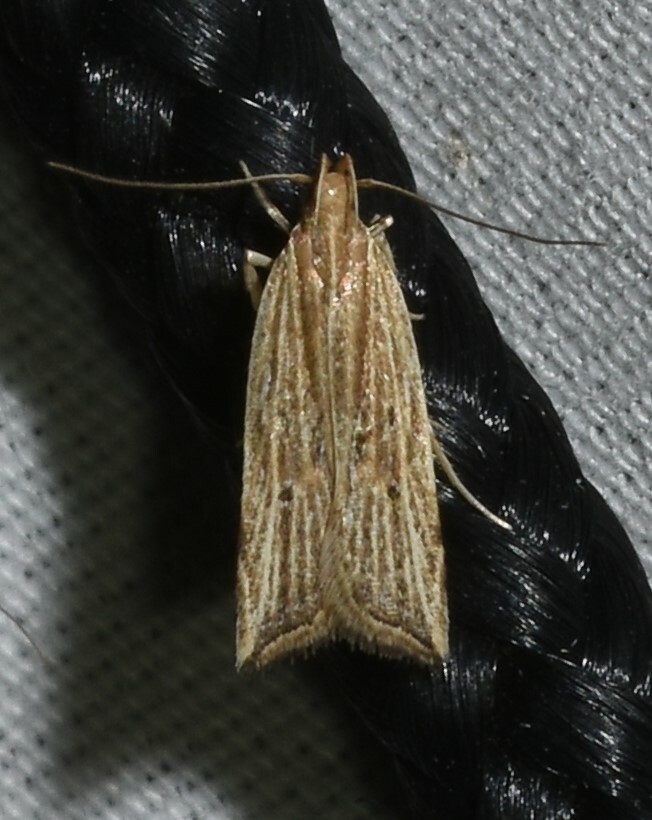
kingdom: Animalia
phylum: Arthropoda
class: Insecta
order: Lepidoptera
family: Gelechiidae
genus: Helcystogramma
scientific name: Helcystogramma hystricella
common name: Lanceolate moth
